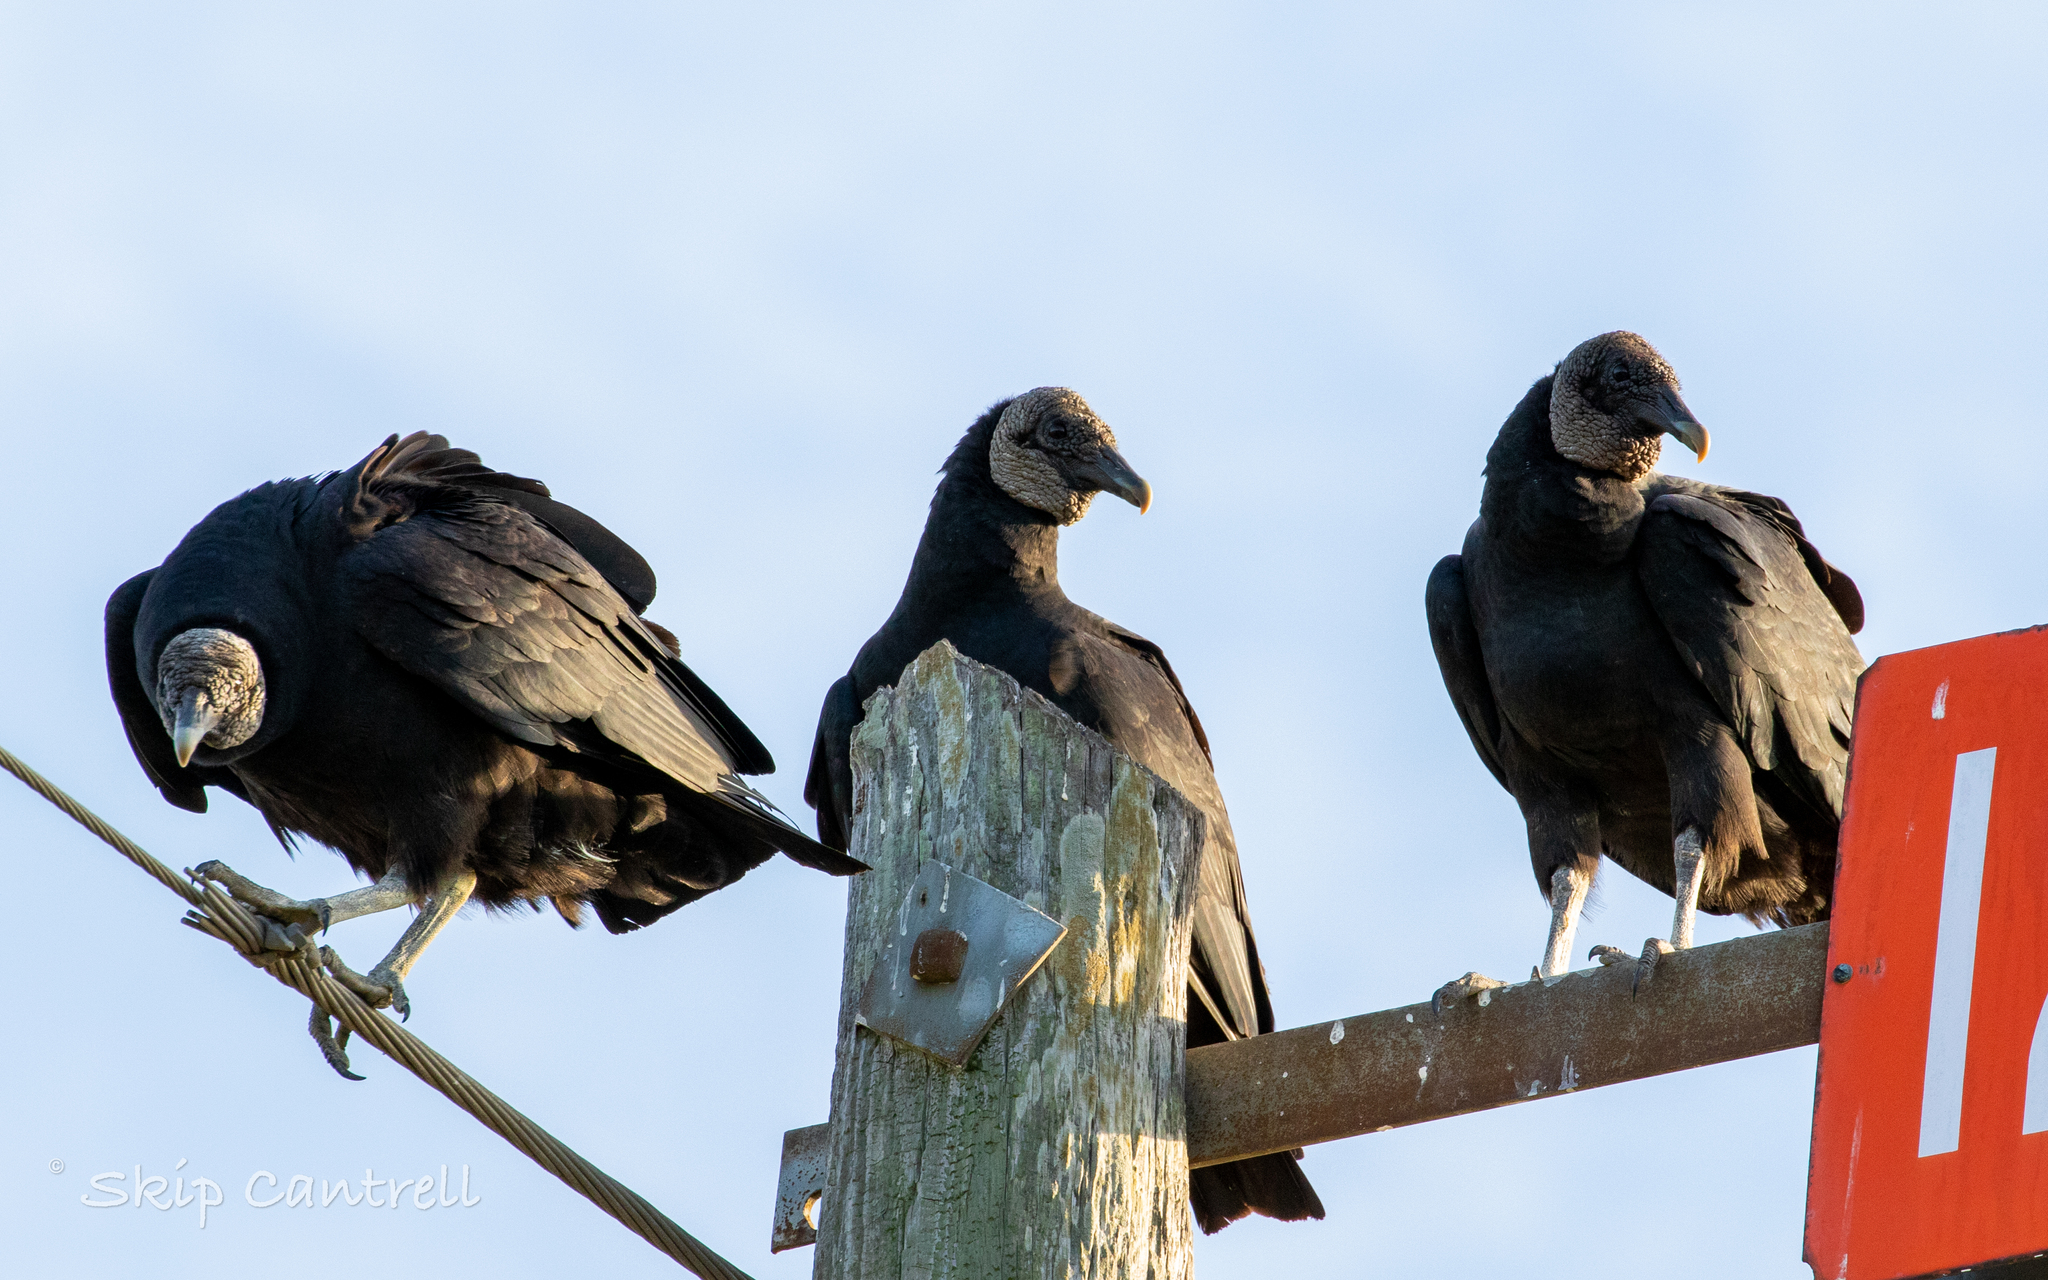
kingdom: Animalia
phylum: Chordata
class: Aves
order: Accipitriformes
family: Cathartidae
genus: Coragyps
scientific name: Coragyps atratus
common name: Black vulture
